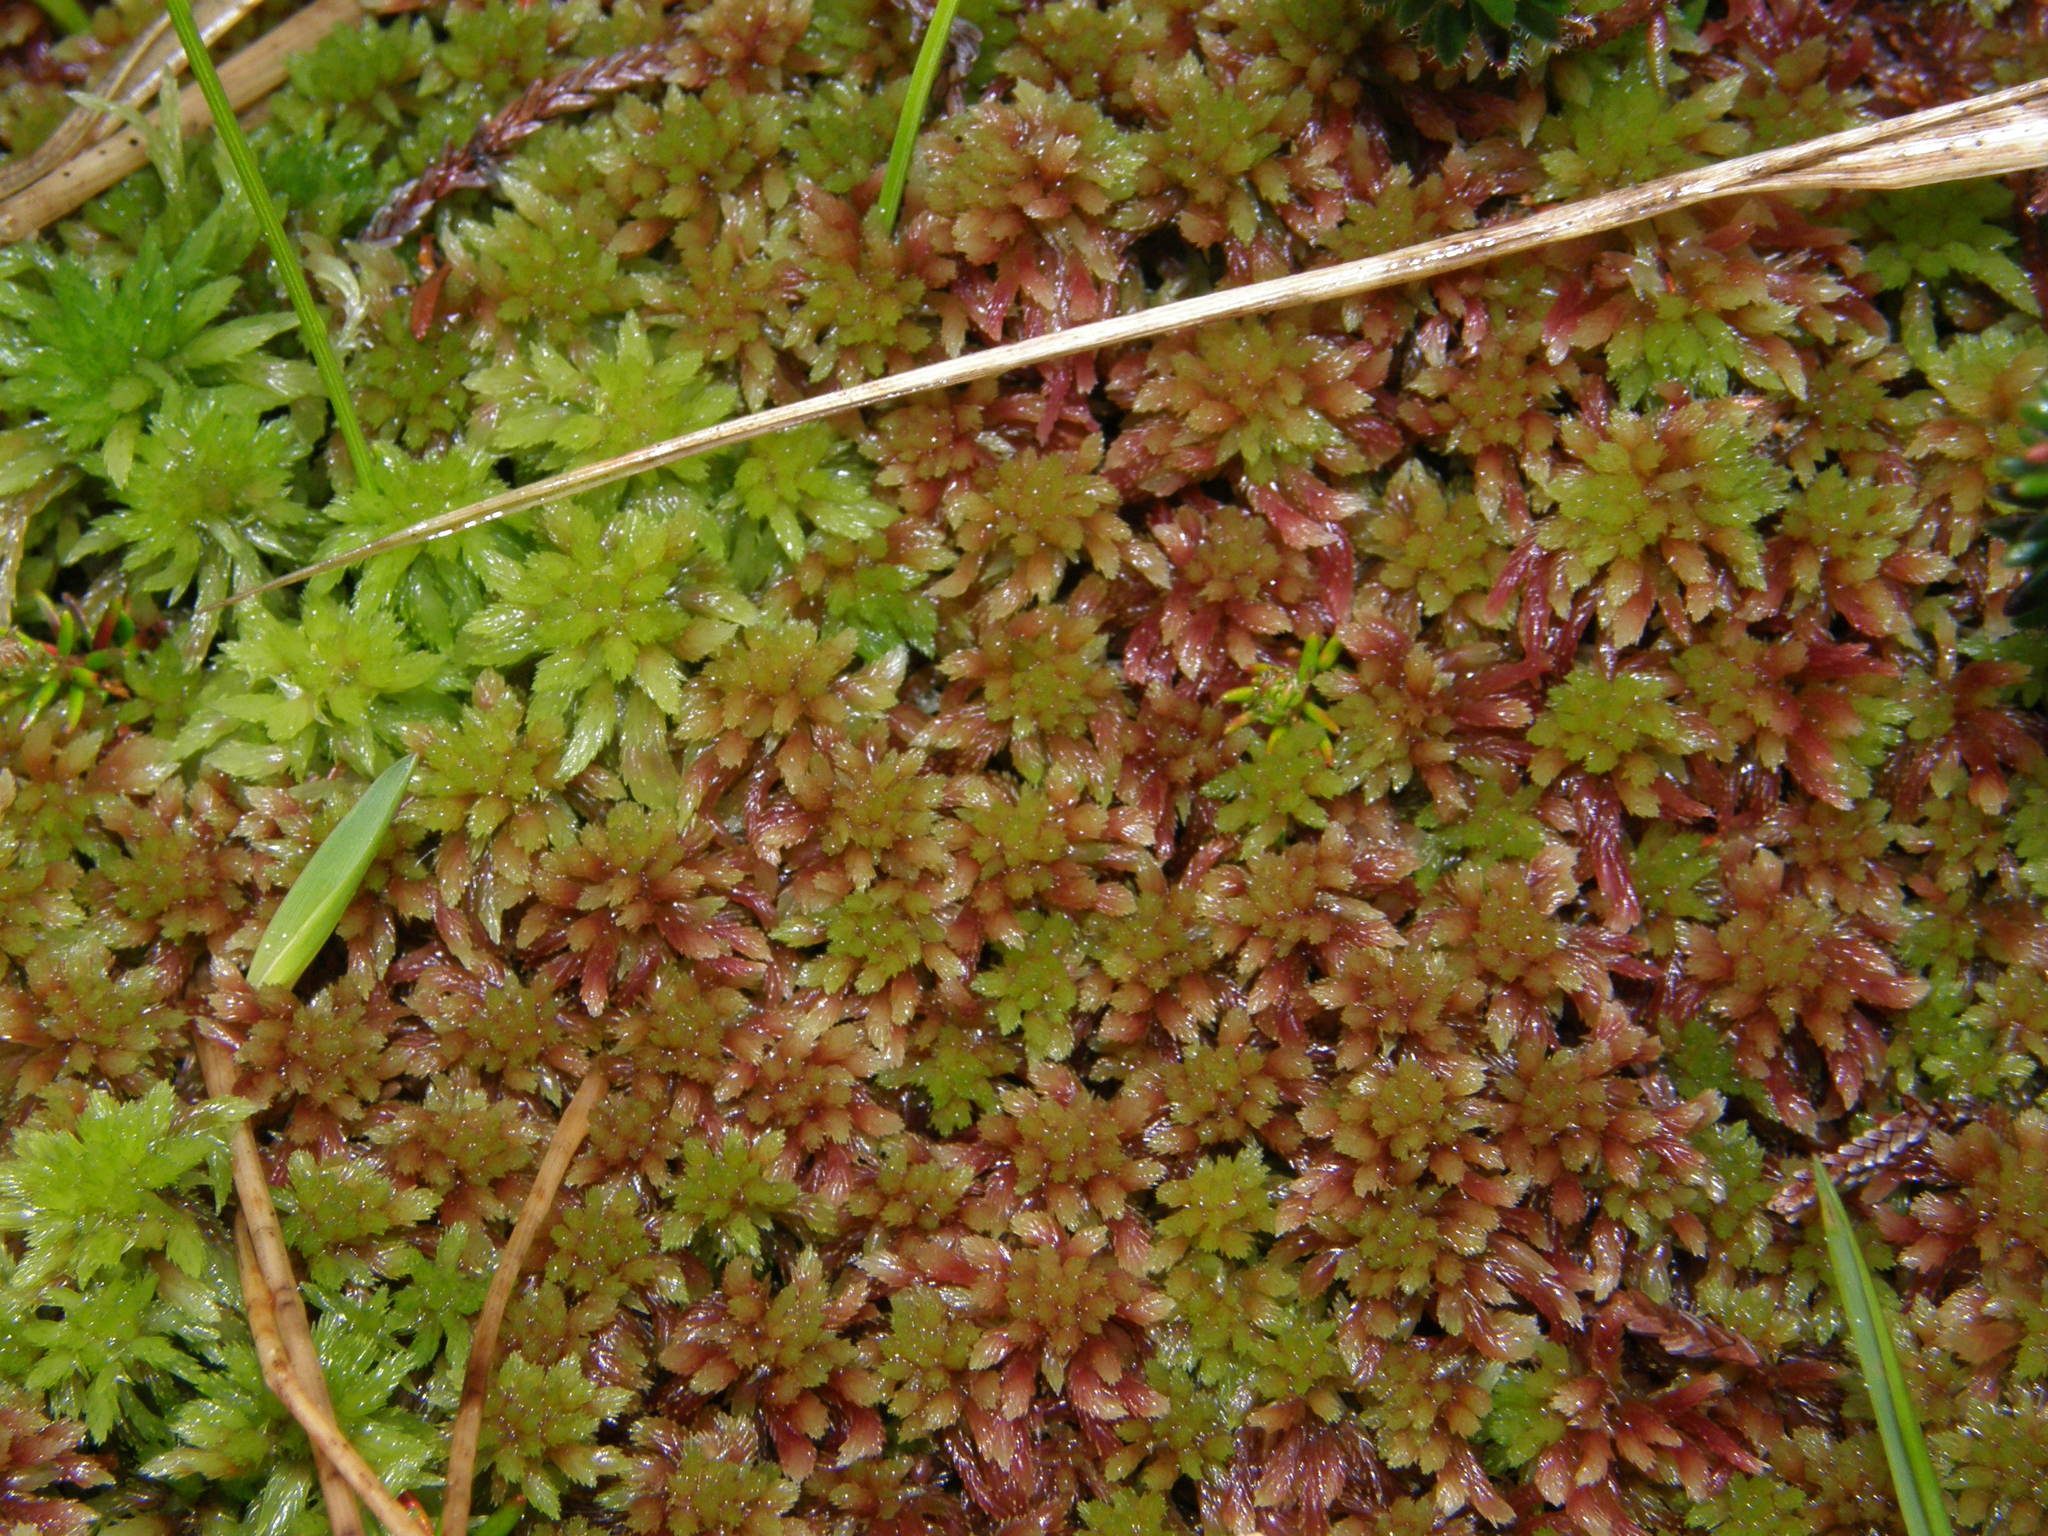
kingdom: Plantae
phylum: Bryophyta
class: Sphagnopsida
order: Sphagnales
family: Sphagnaceae
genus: Sphagnum
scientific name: Sphagnum capillifolium
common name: Small red peat moss
